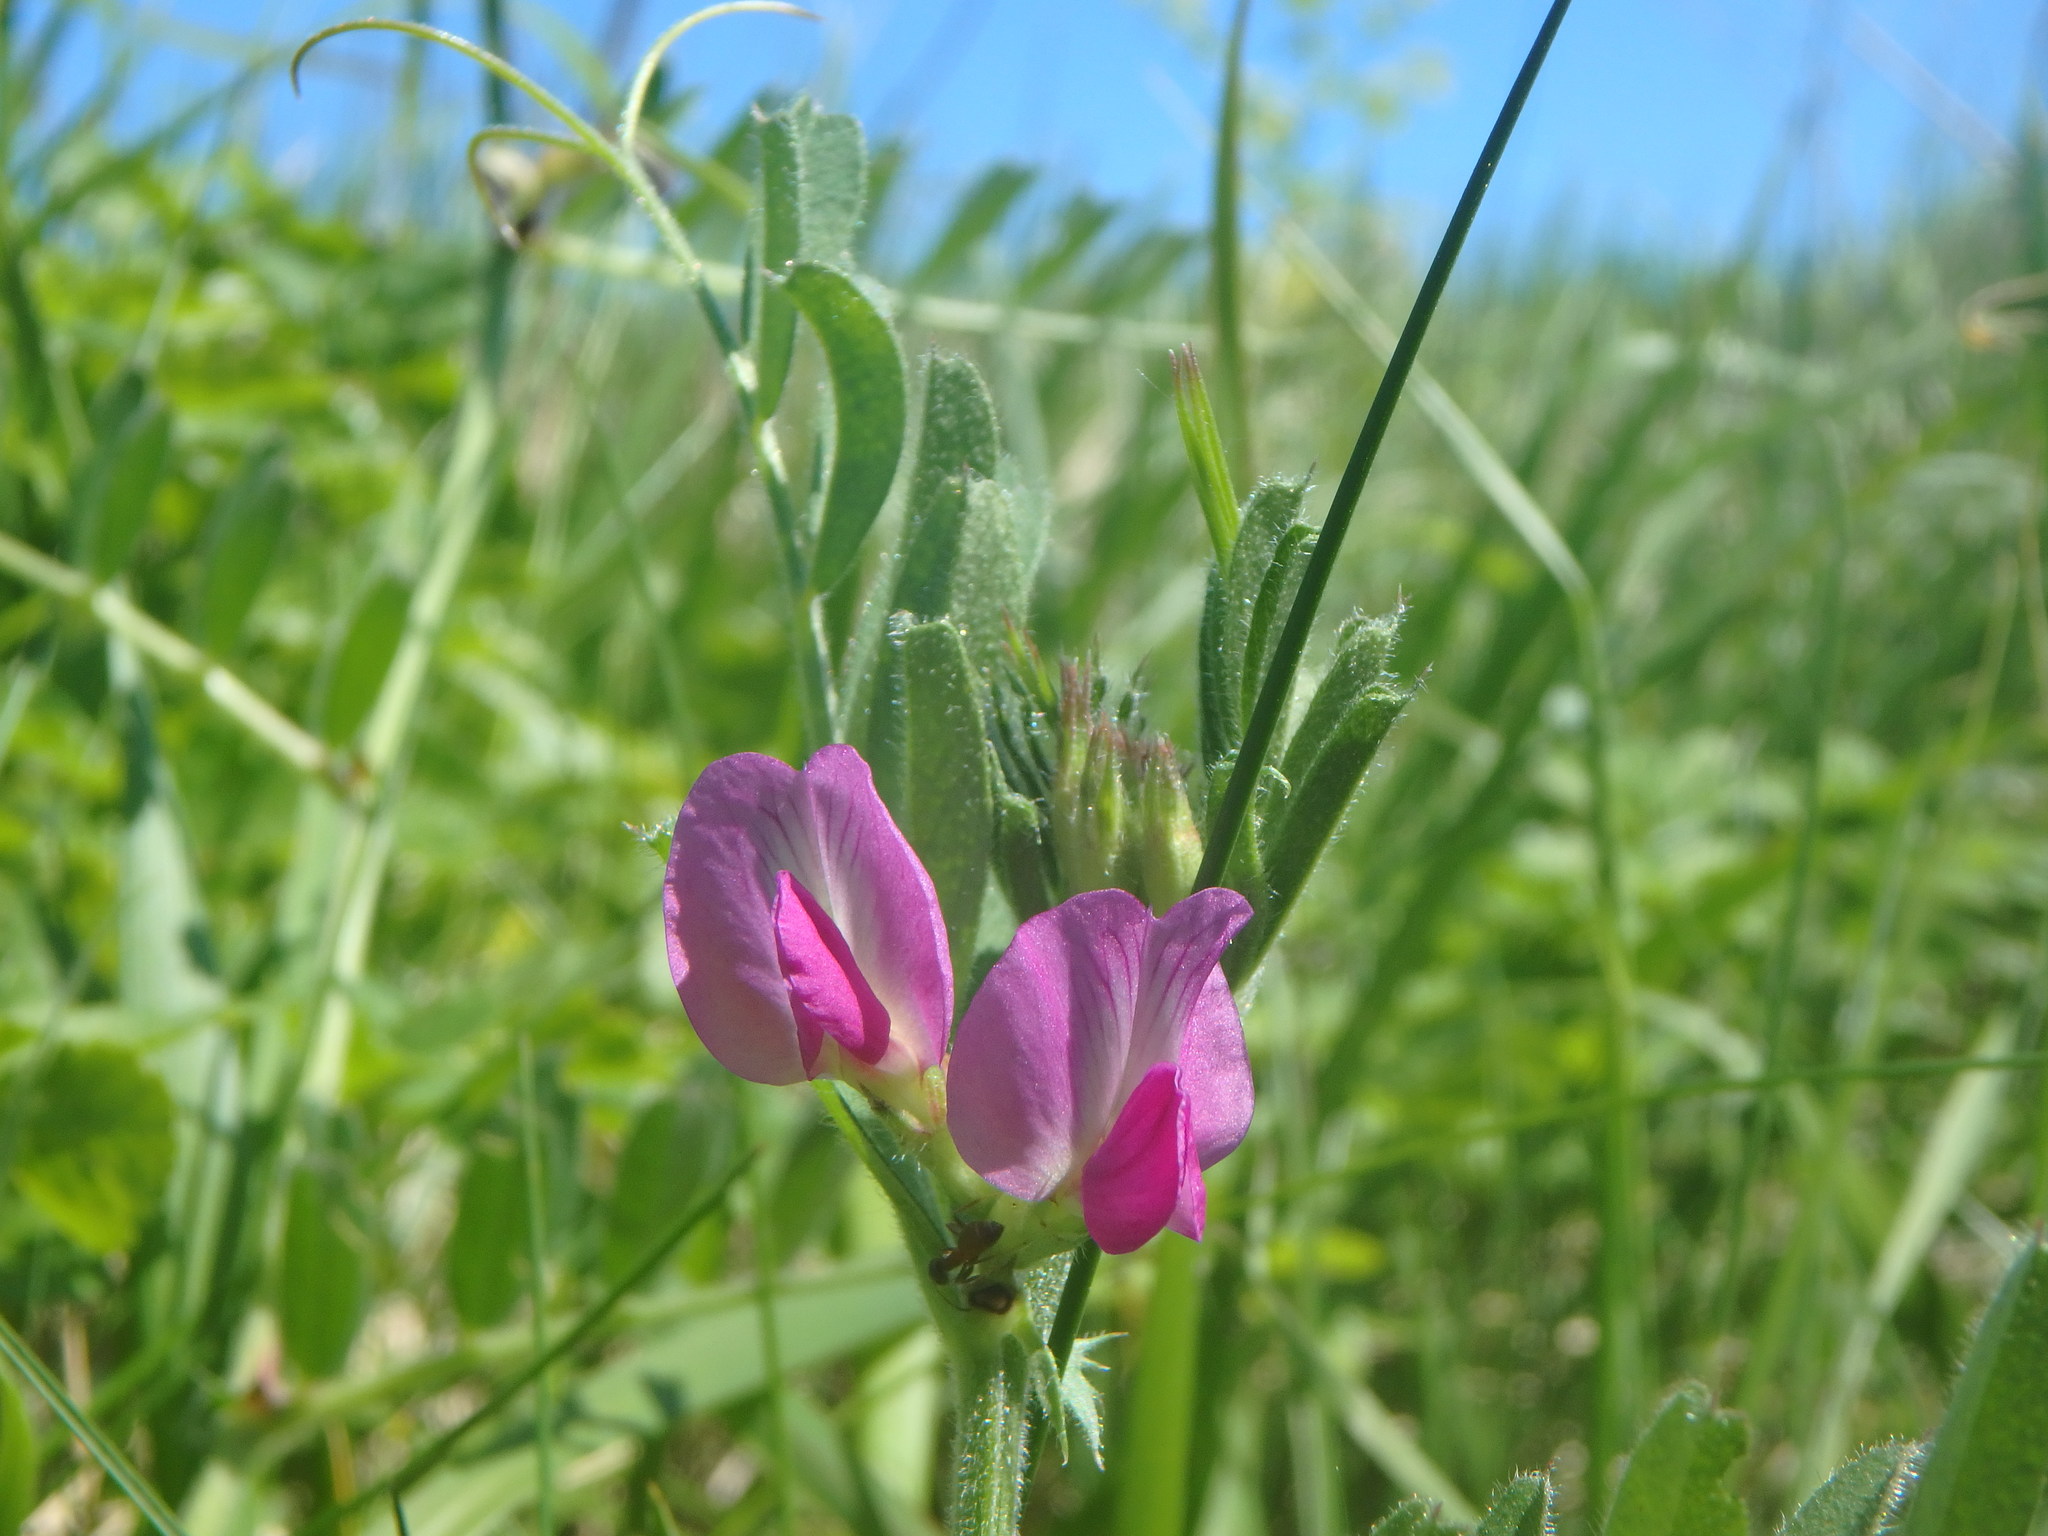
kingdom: Plantae
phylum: Tracheophyta
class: Magnoliopsida
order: Fabales
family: Fabaceae
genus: Vicia
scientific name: Vicia sativa
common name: Garden vetch
